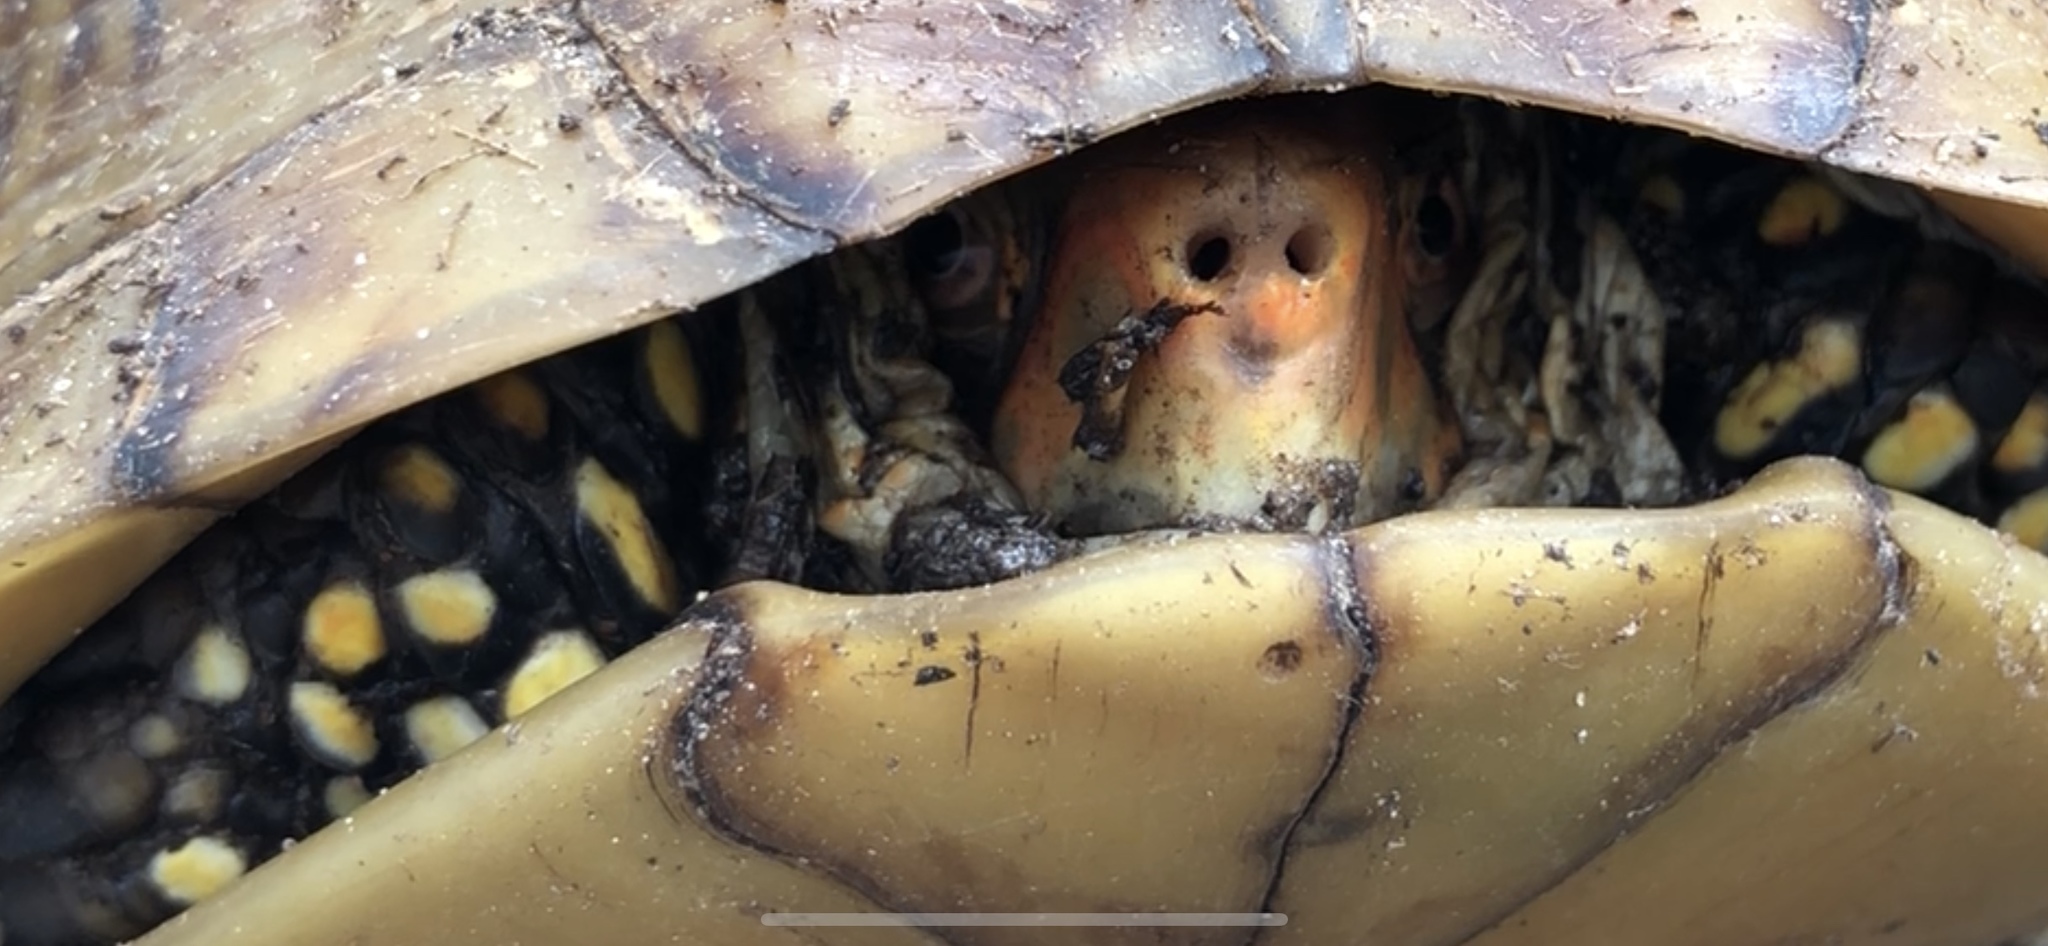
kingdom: Animalia
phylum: Chordata
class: Testudines
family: Emydidae
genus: Terrapene
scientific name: Terrapene carolina
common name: Common box turtle
